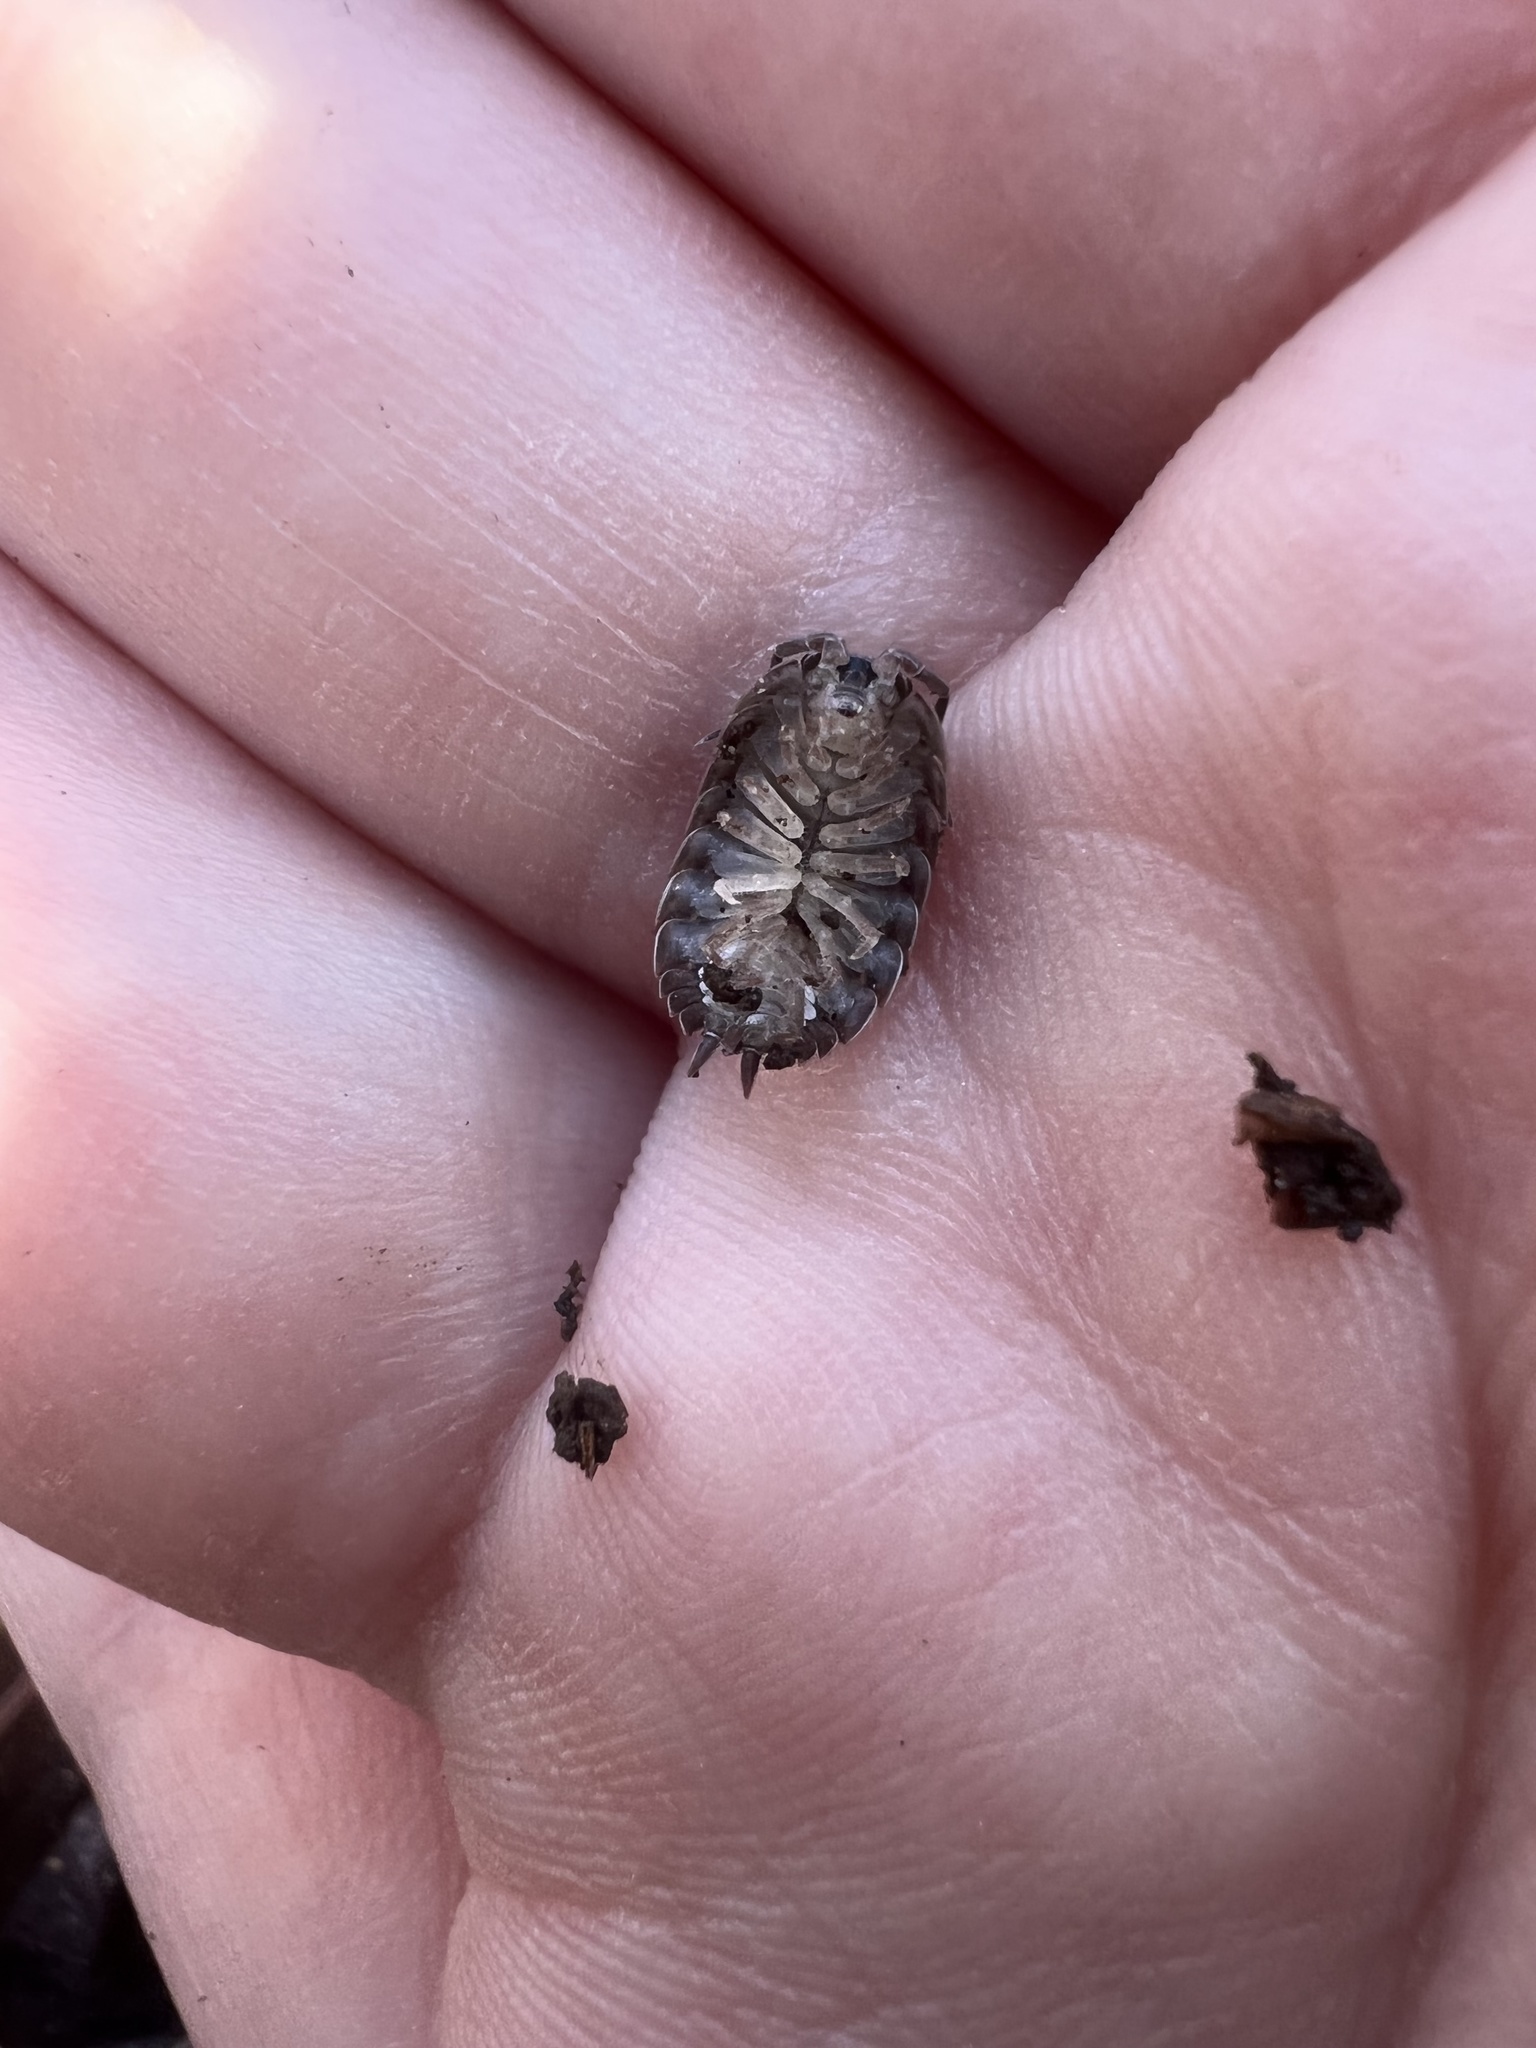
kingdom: Animalia
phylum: Arthropoda
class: Malacostraca
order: Isopoda
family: Trachelipodidae
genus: Trachelipus
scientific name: Trachelipus rathkii
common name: Isopod
